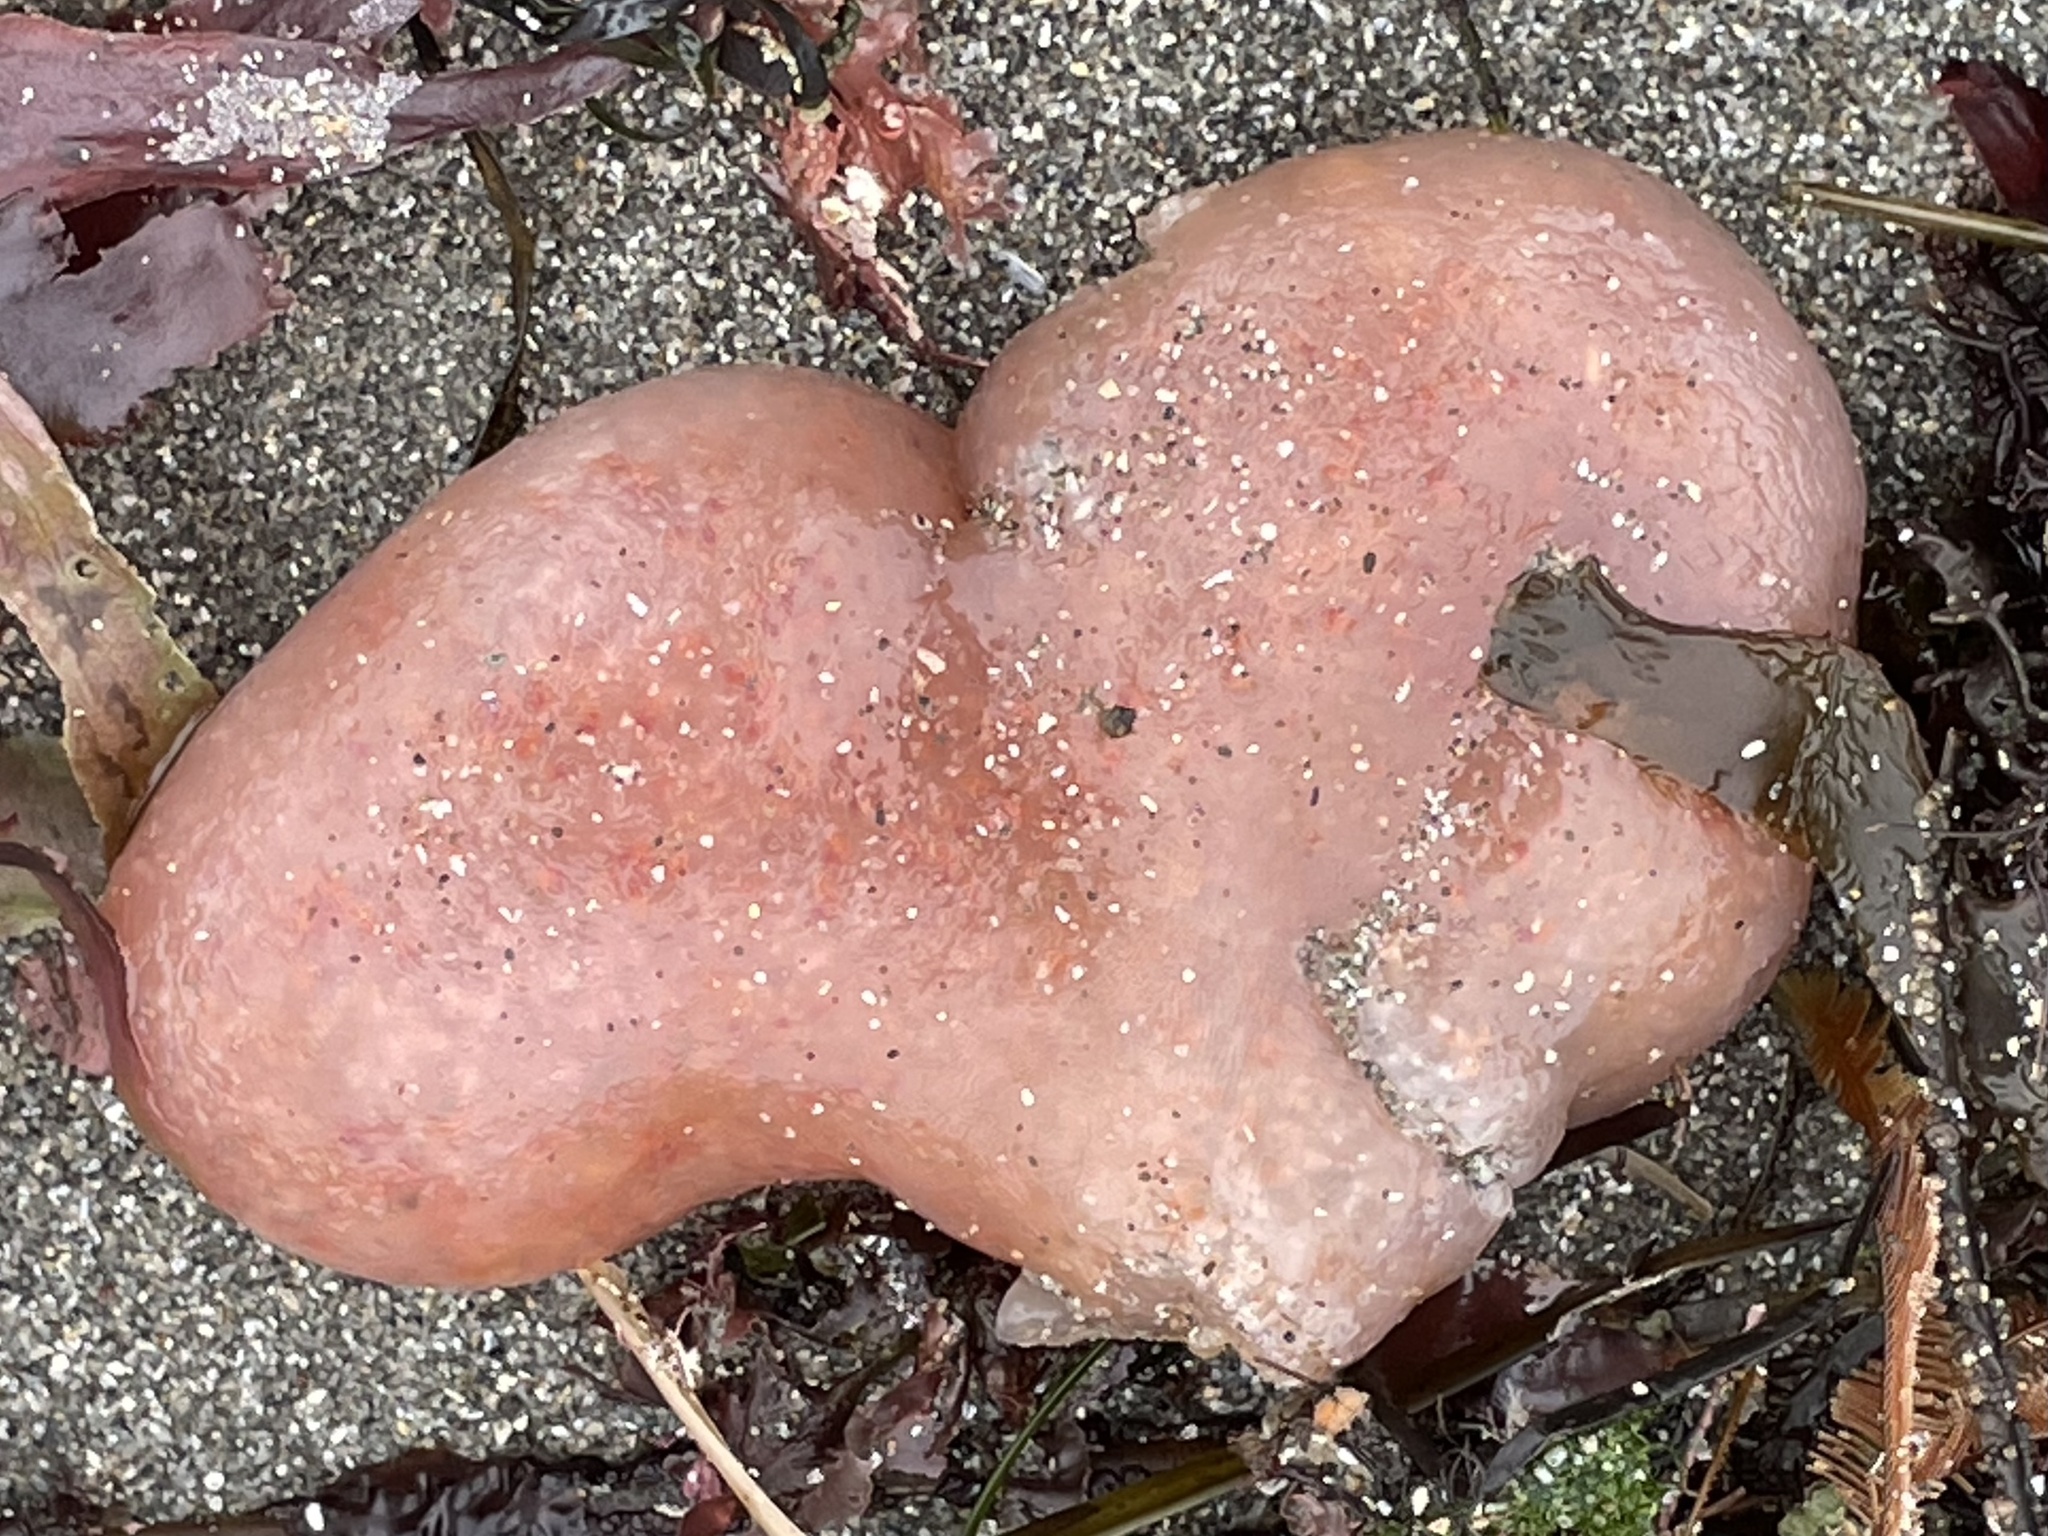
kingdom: Animalia
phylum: Chordata
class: Ascidiacea
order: Aplousobranchia
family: Polyclinidae
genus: Aplidium
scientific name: Aplidium californicum
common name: Sea pork
